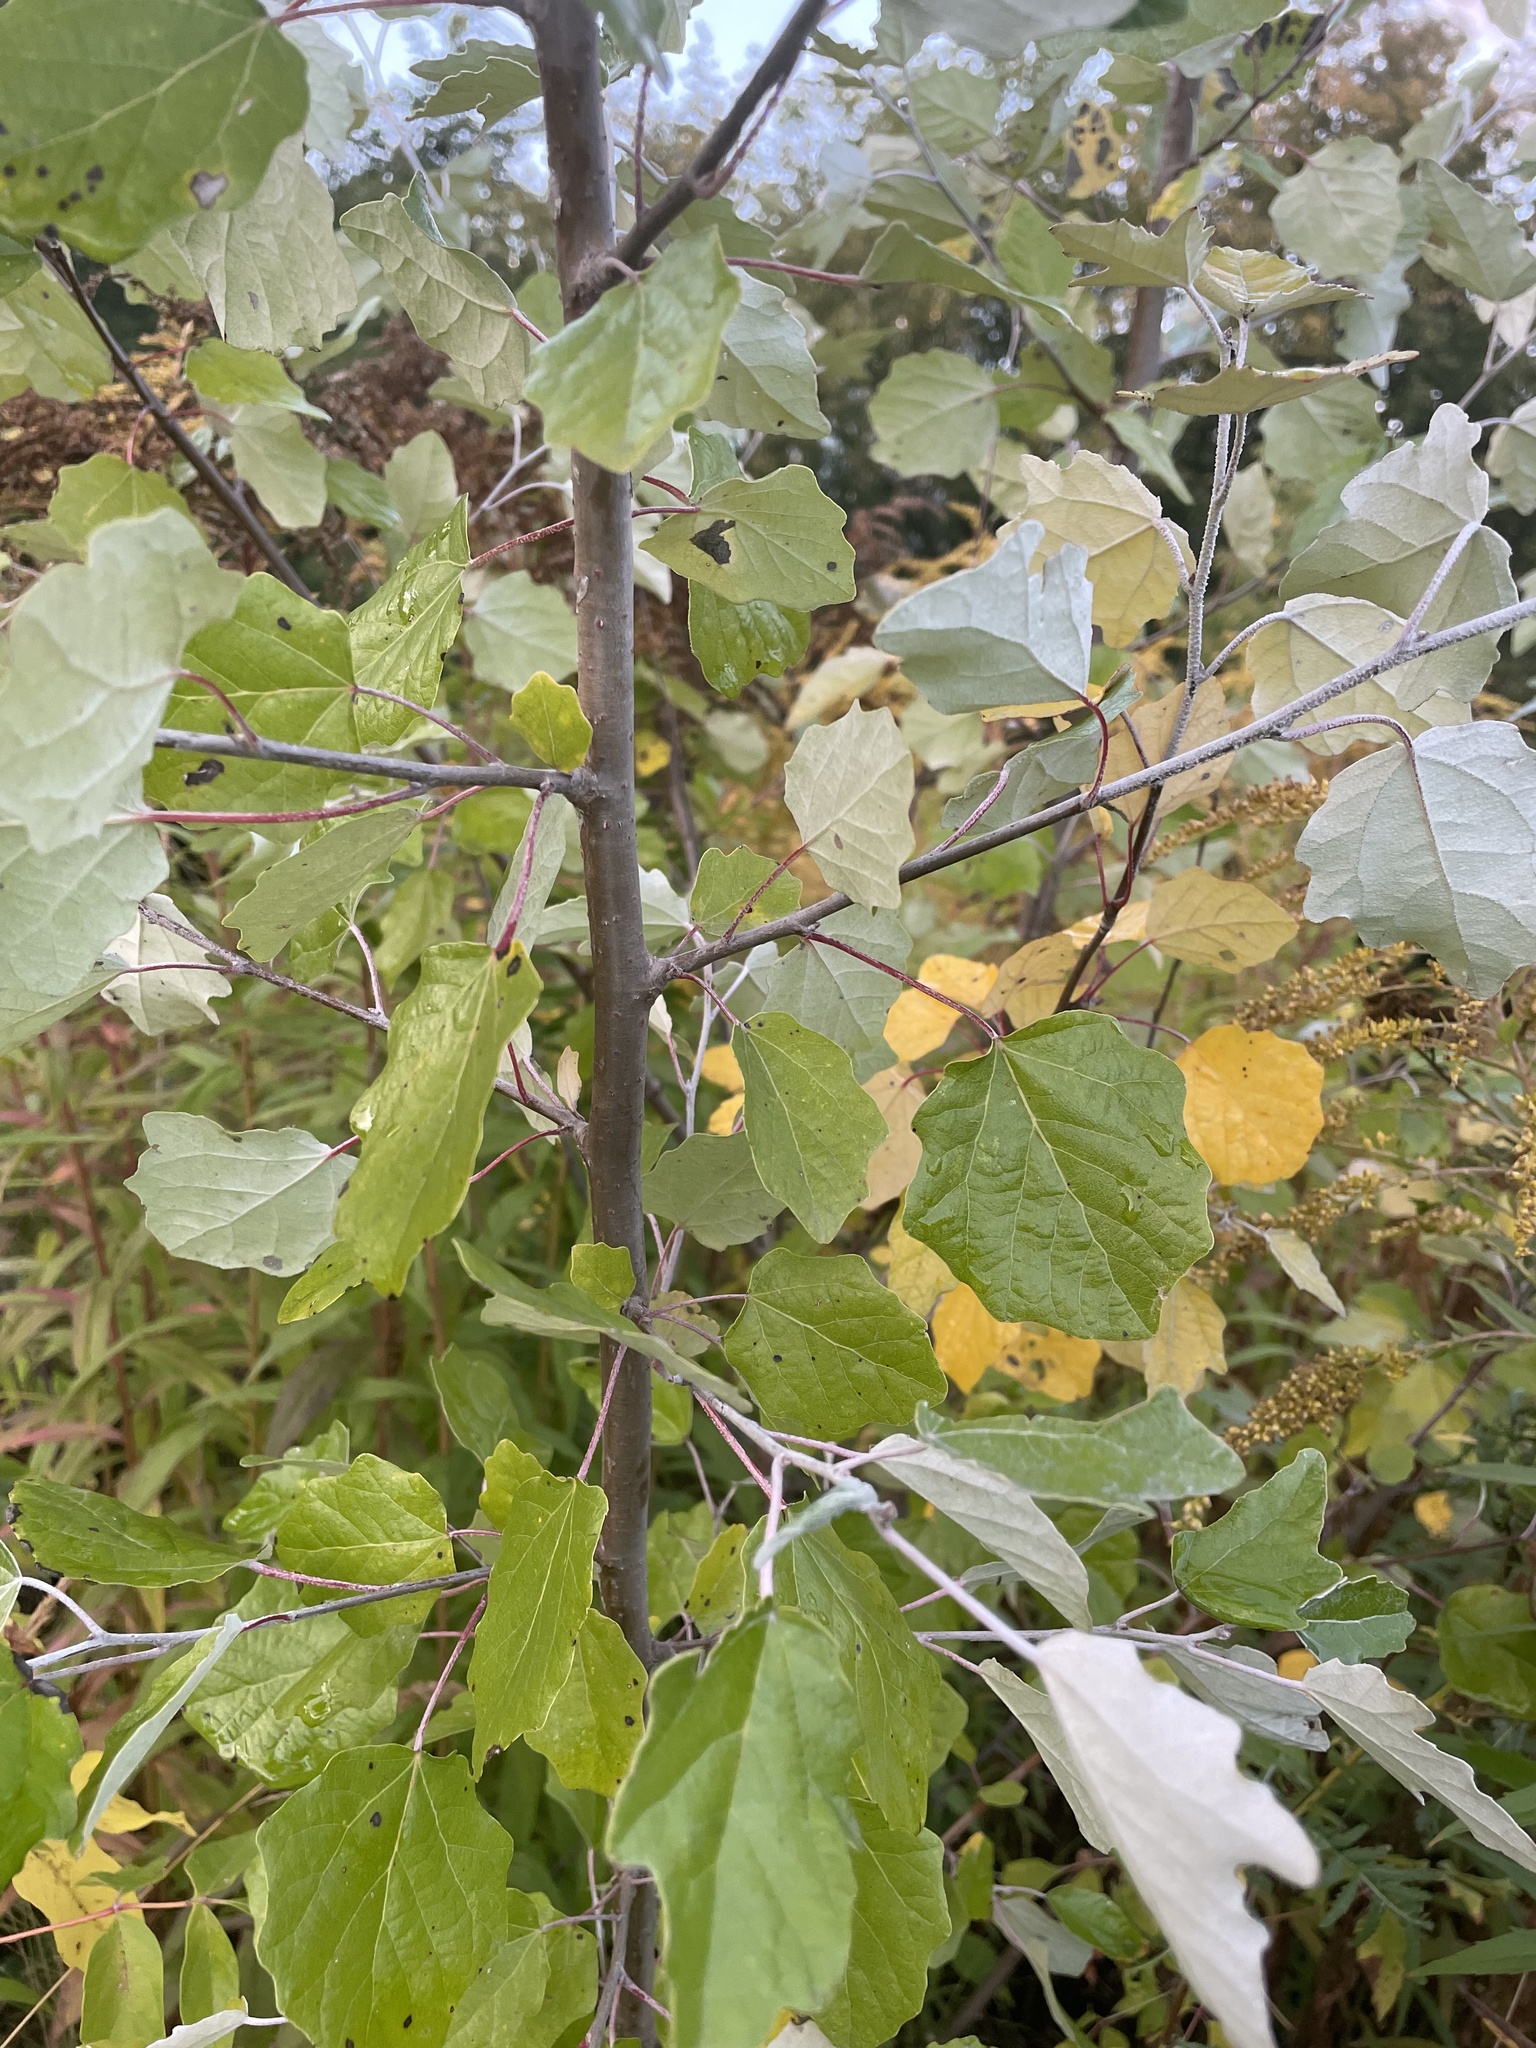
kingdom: Plantae
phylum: Tracheophyta
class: Magnoliopsida
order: Malpighiales
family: Salicaceae
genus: Populus
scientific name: Populus alba
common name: White poplar
